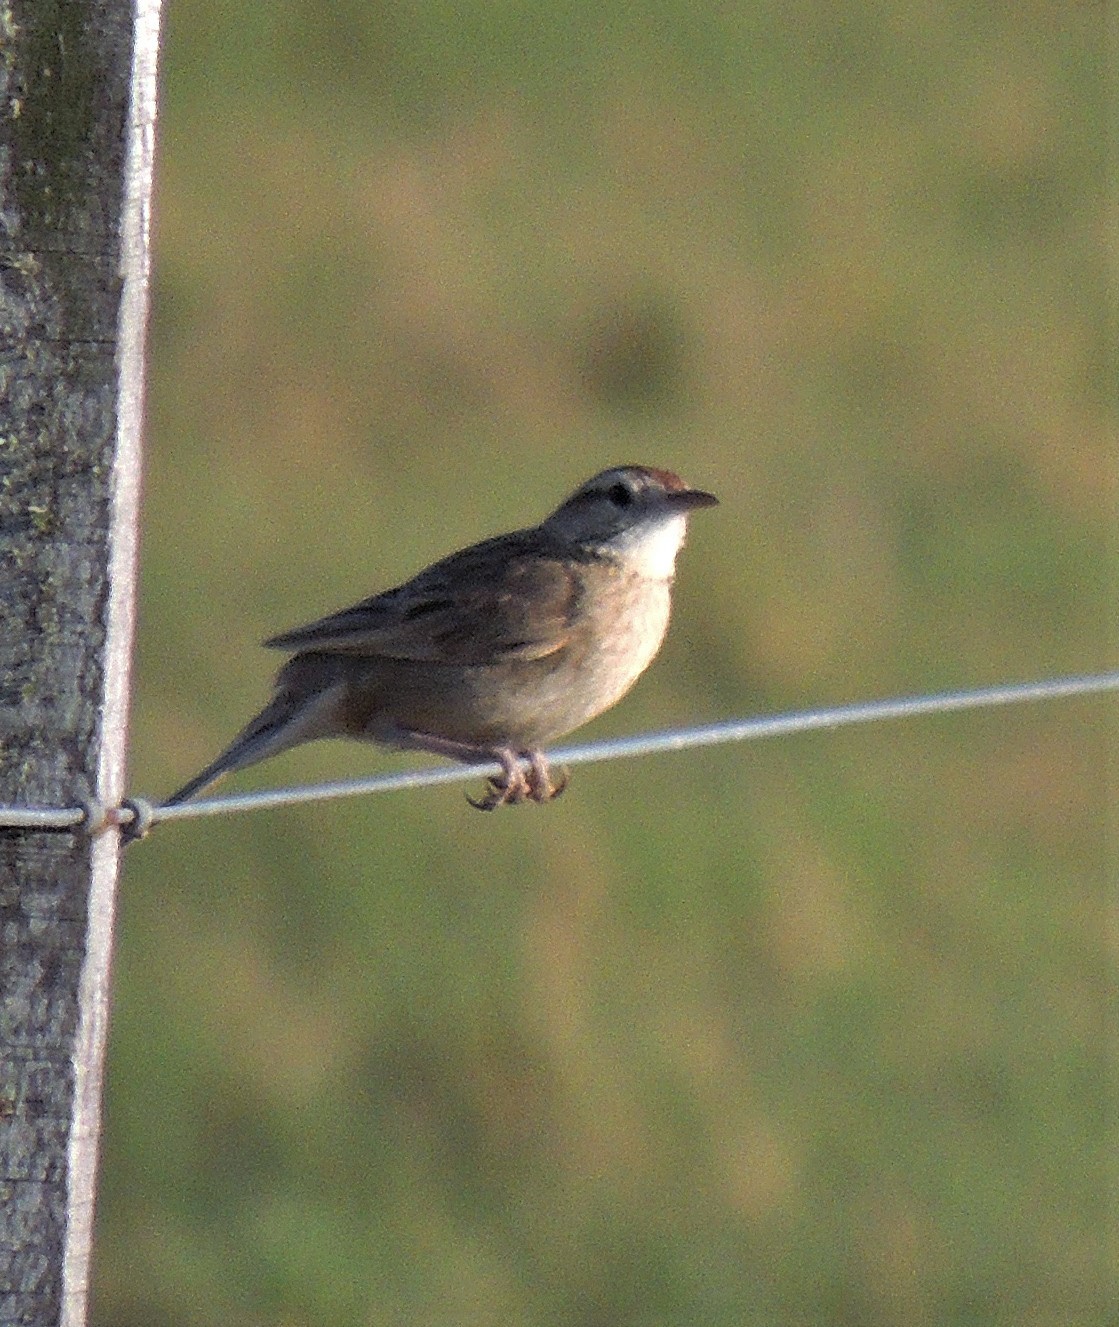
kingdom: Animalia
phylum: Chordata
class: Aves
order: Passeriformes
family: Furnariidae
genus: Anumbius
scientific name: Anumbius annumbi
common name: Firewood-gatherer
